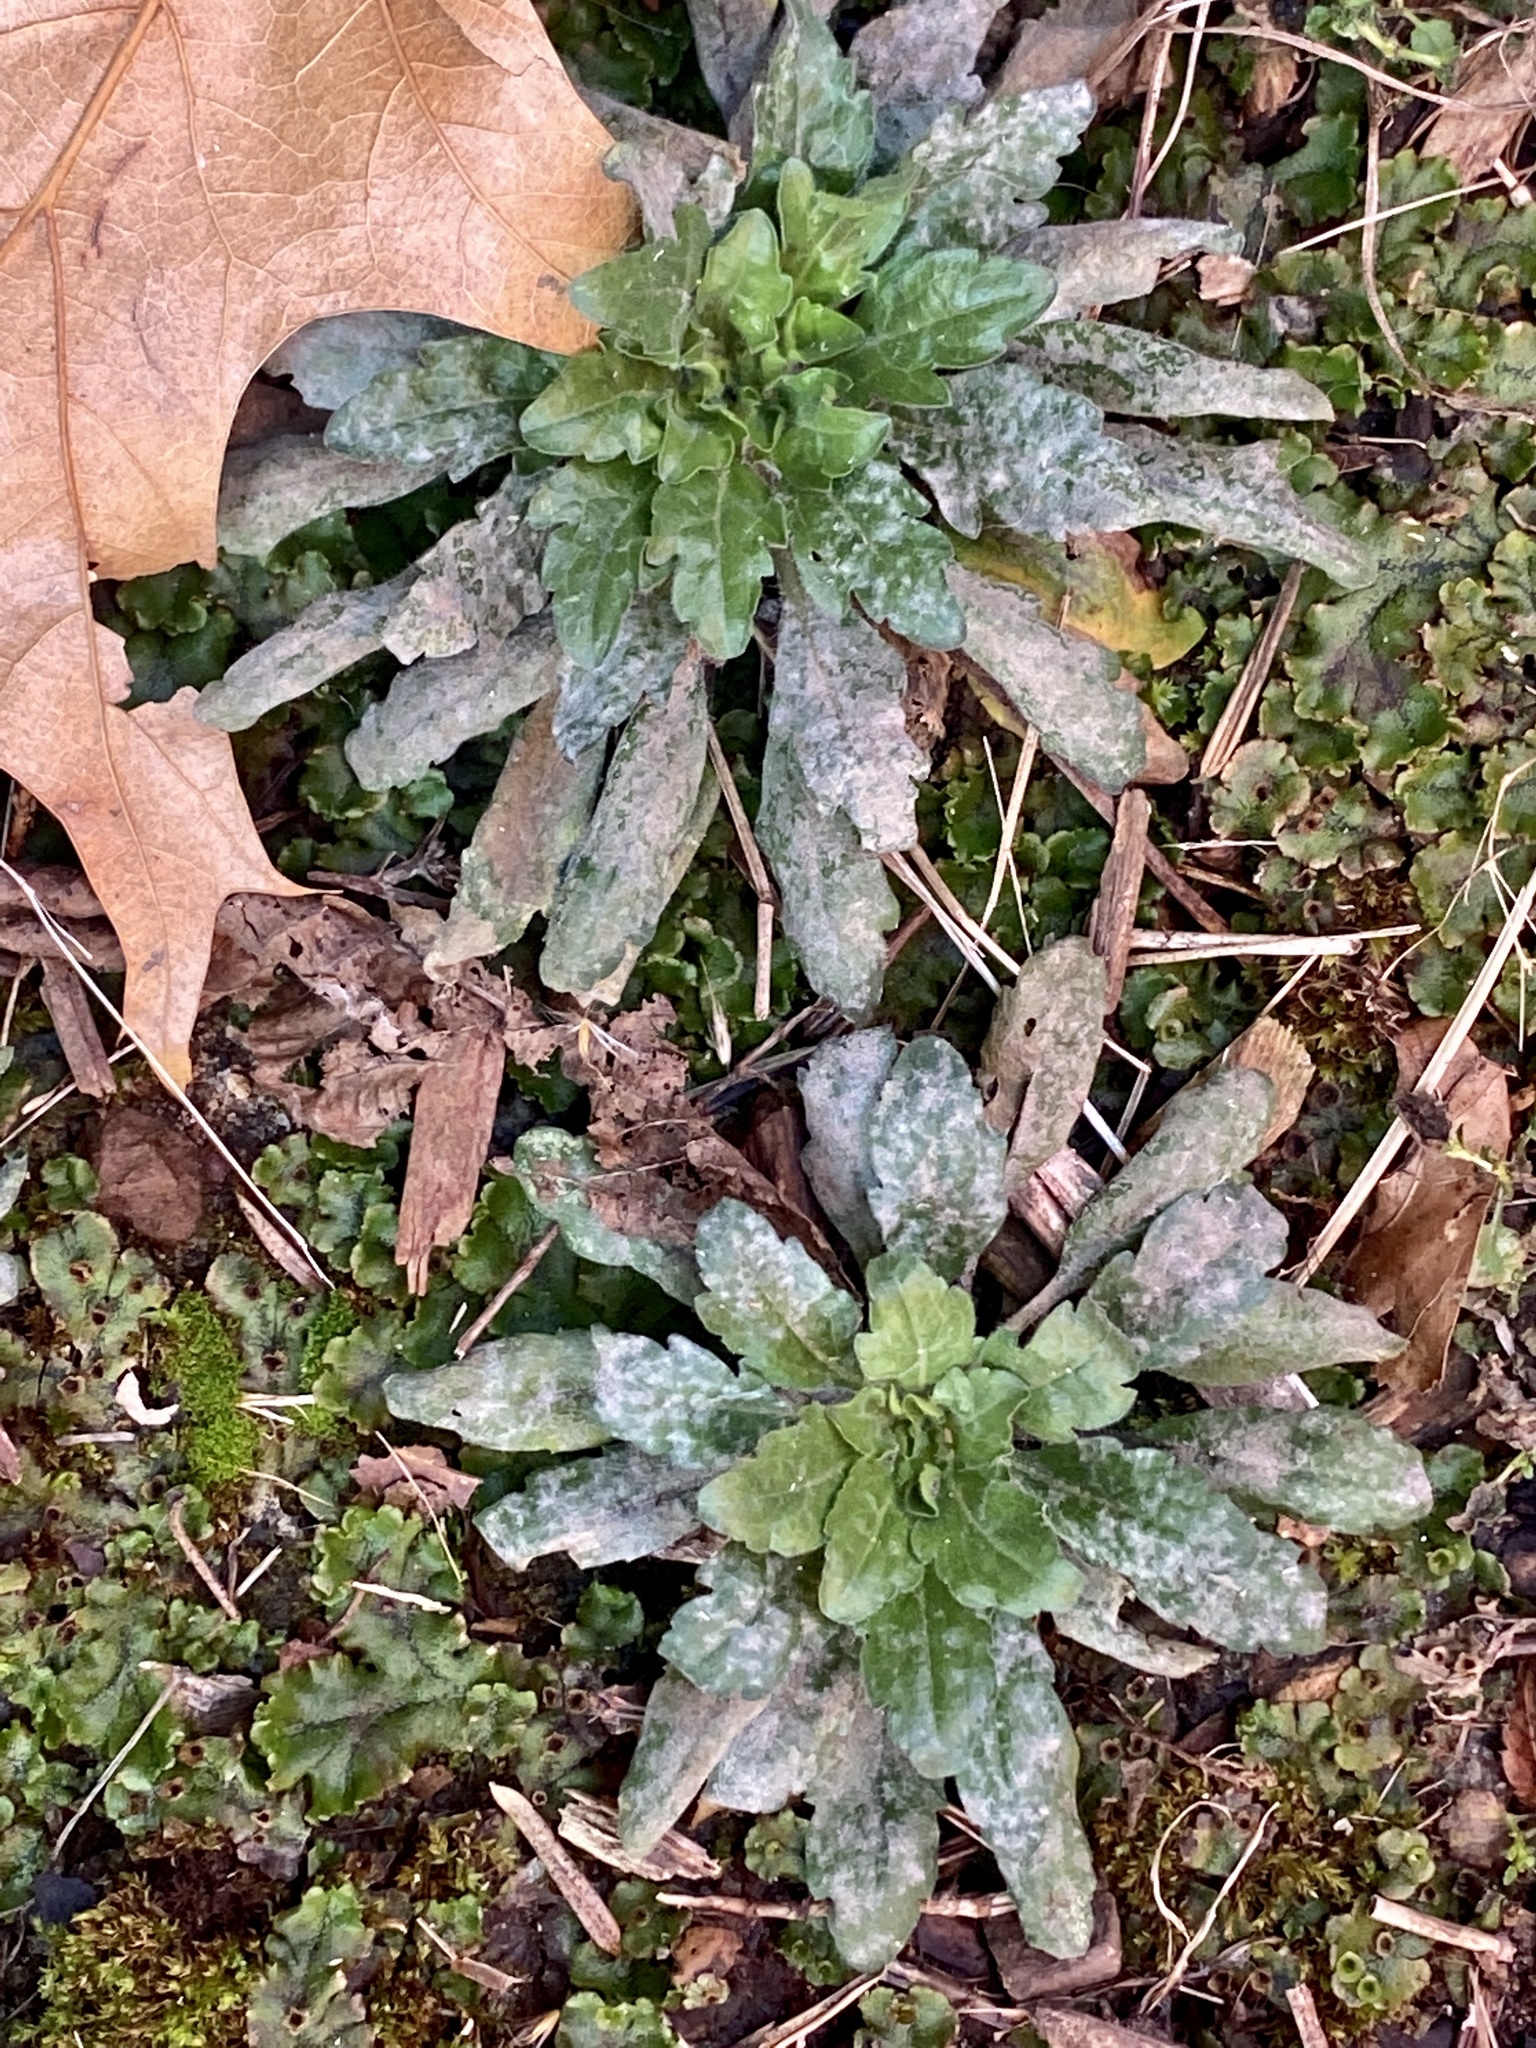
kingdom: Plantae
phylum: Tracheophyta
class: Magnoliopsida
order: Asterales
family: Asteraceae
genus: Erigeron
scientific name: Erigeron canadensis
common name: Canadian fleabane
